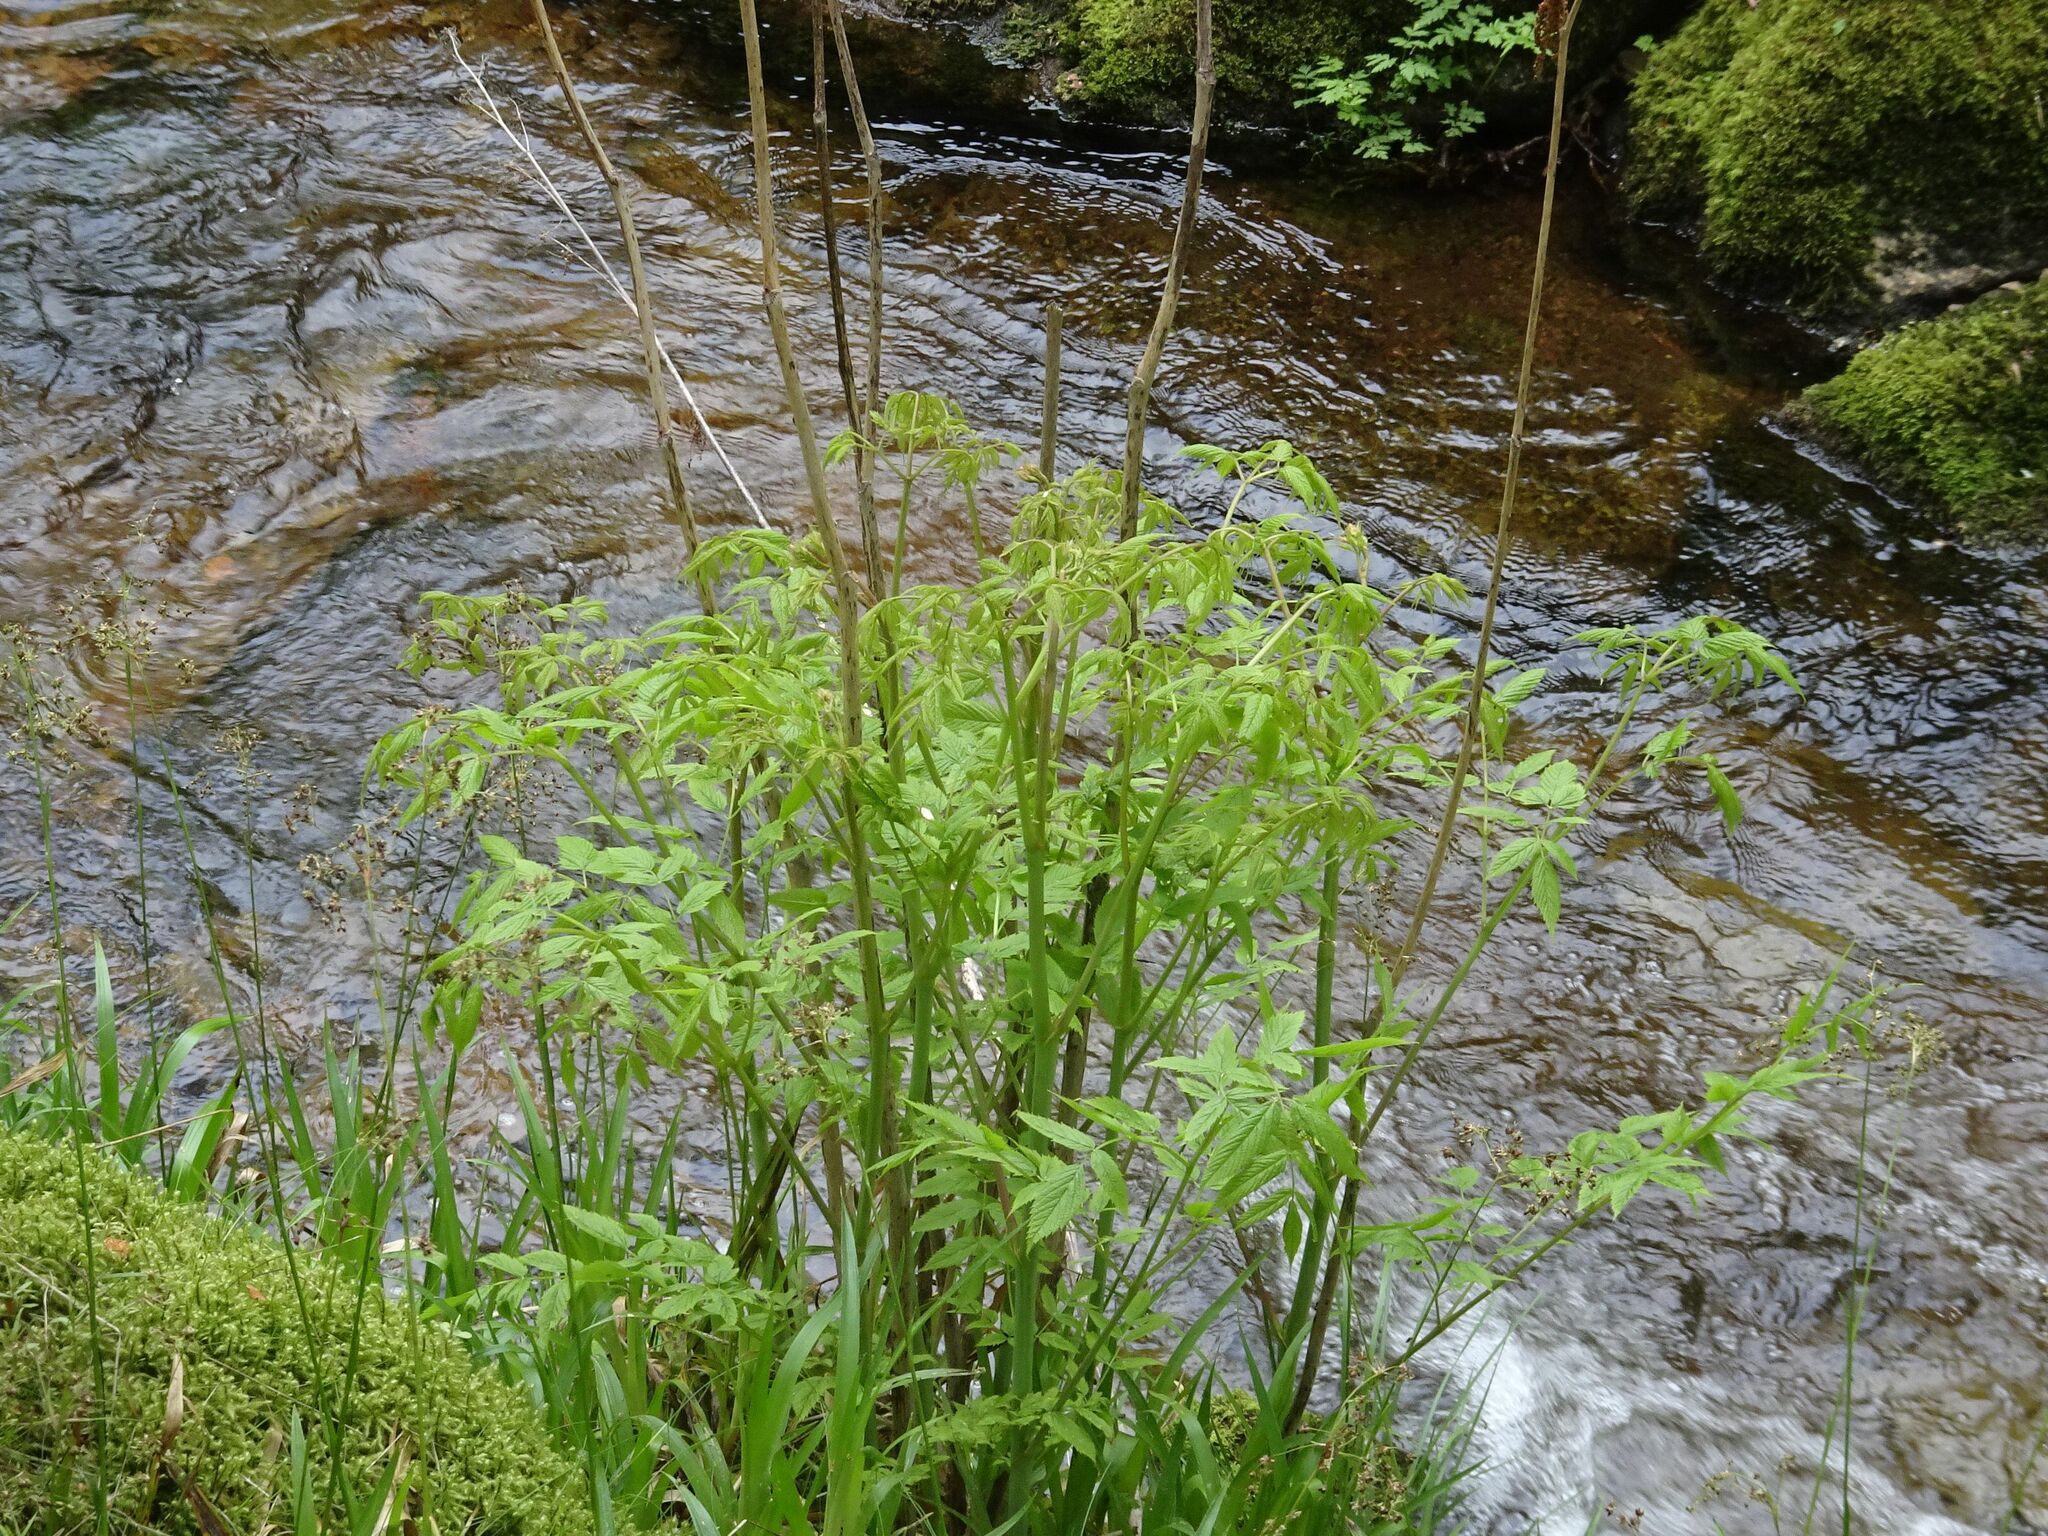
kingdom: Plantae
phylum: Tracheophyta
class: Magnoliopsida
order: Rosales
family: Rosaceae
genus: Aruncus
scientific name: Aruncus dioicus
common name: Buck's-beard
